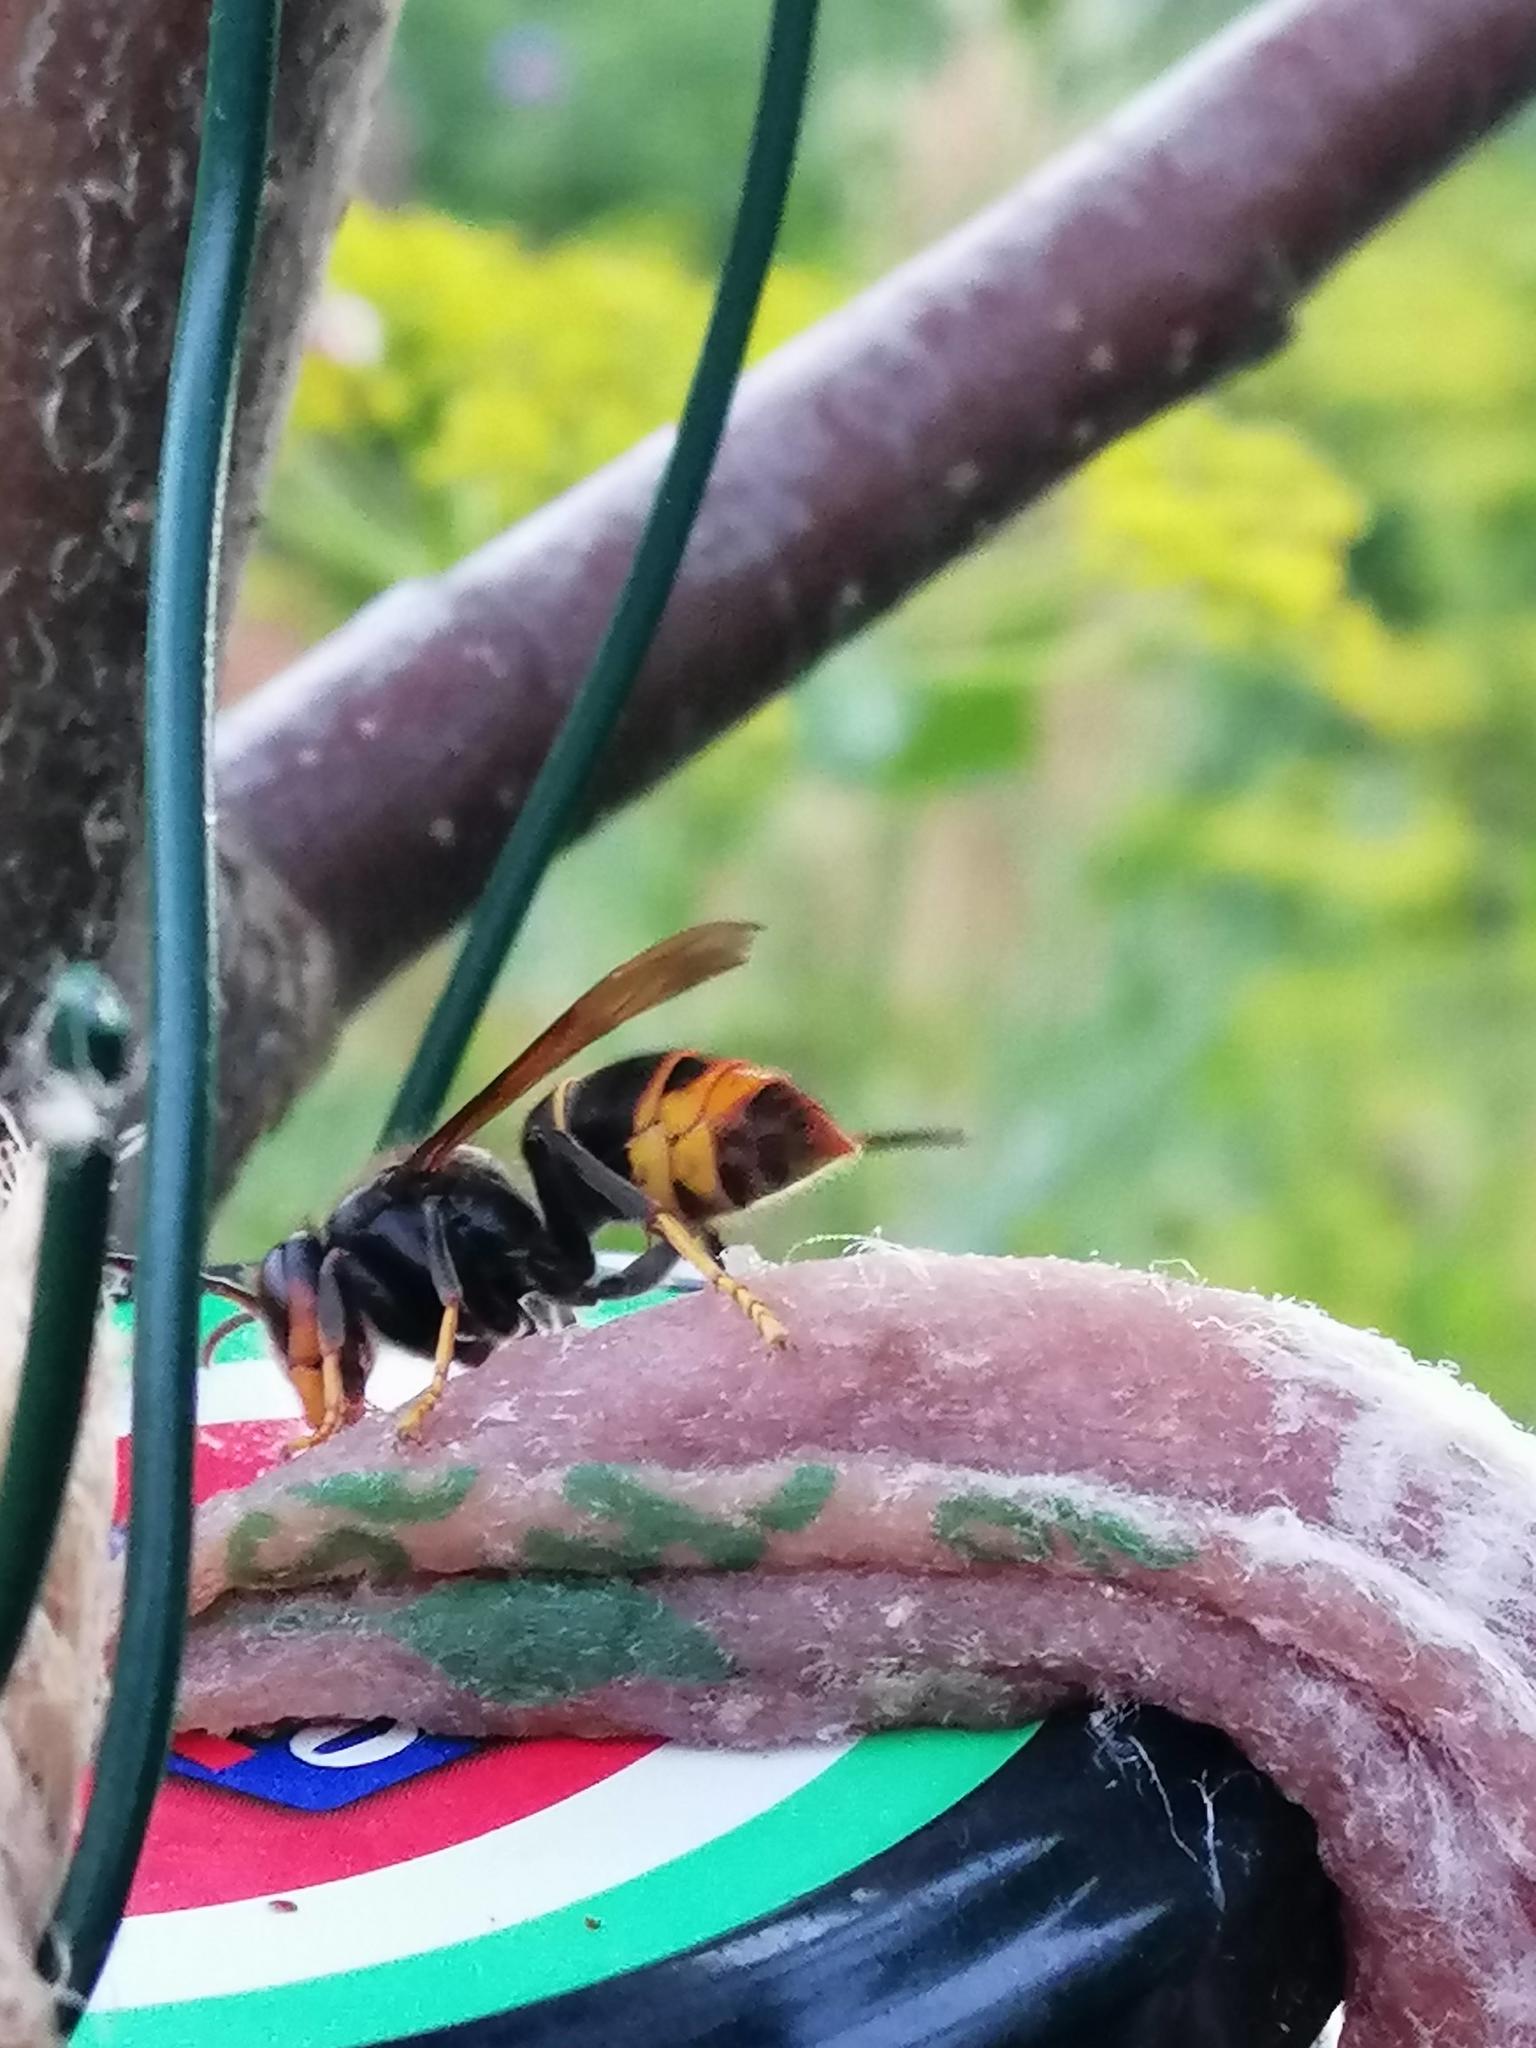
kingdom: Animalia
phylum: Arthropoda
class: Insecta
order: Hymenoptera
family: Vespidae
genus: Vespa
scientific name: Vespa velutina
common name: Asian hornet
